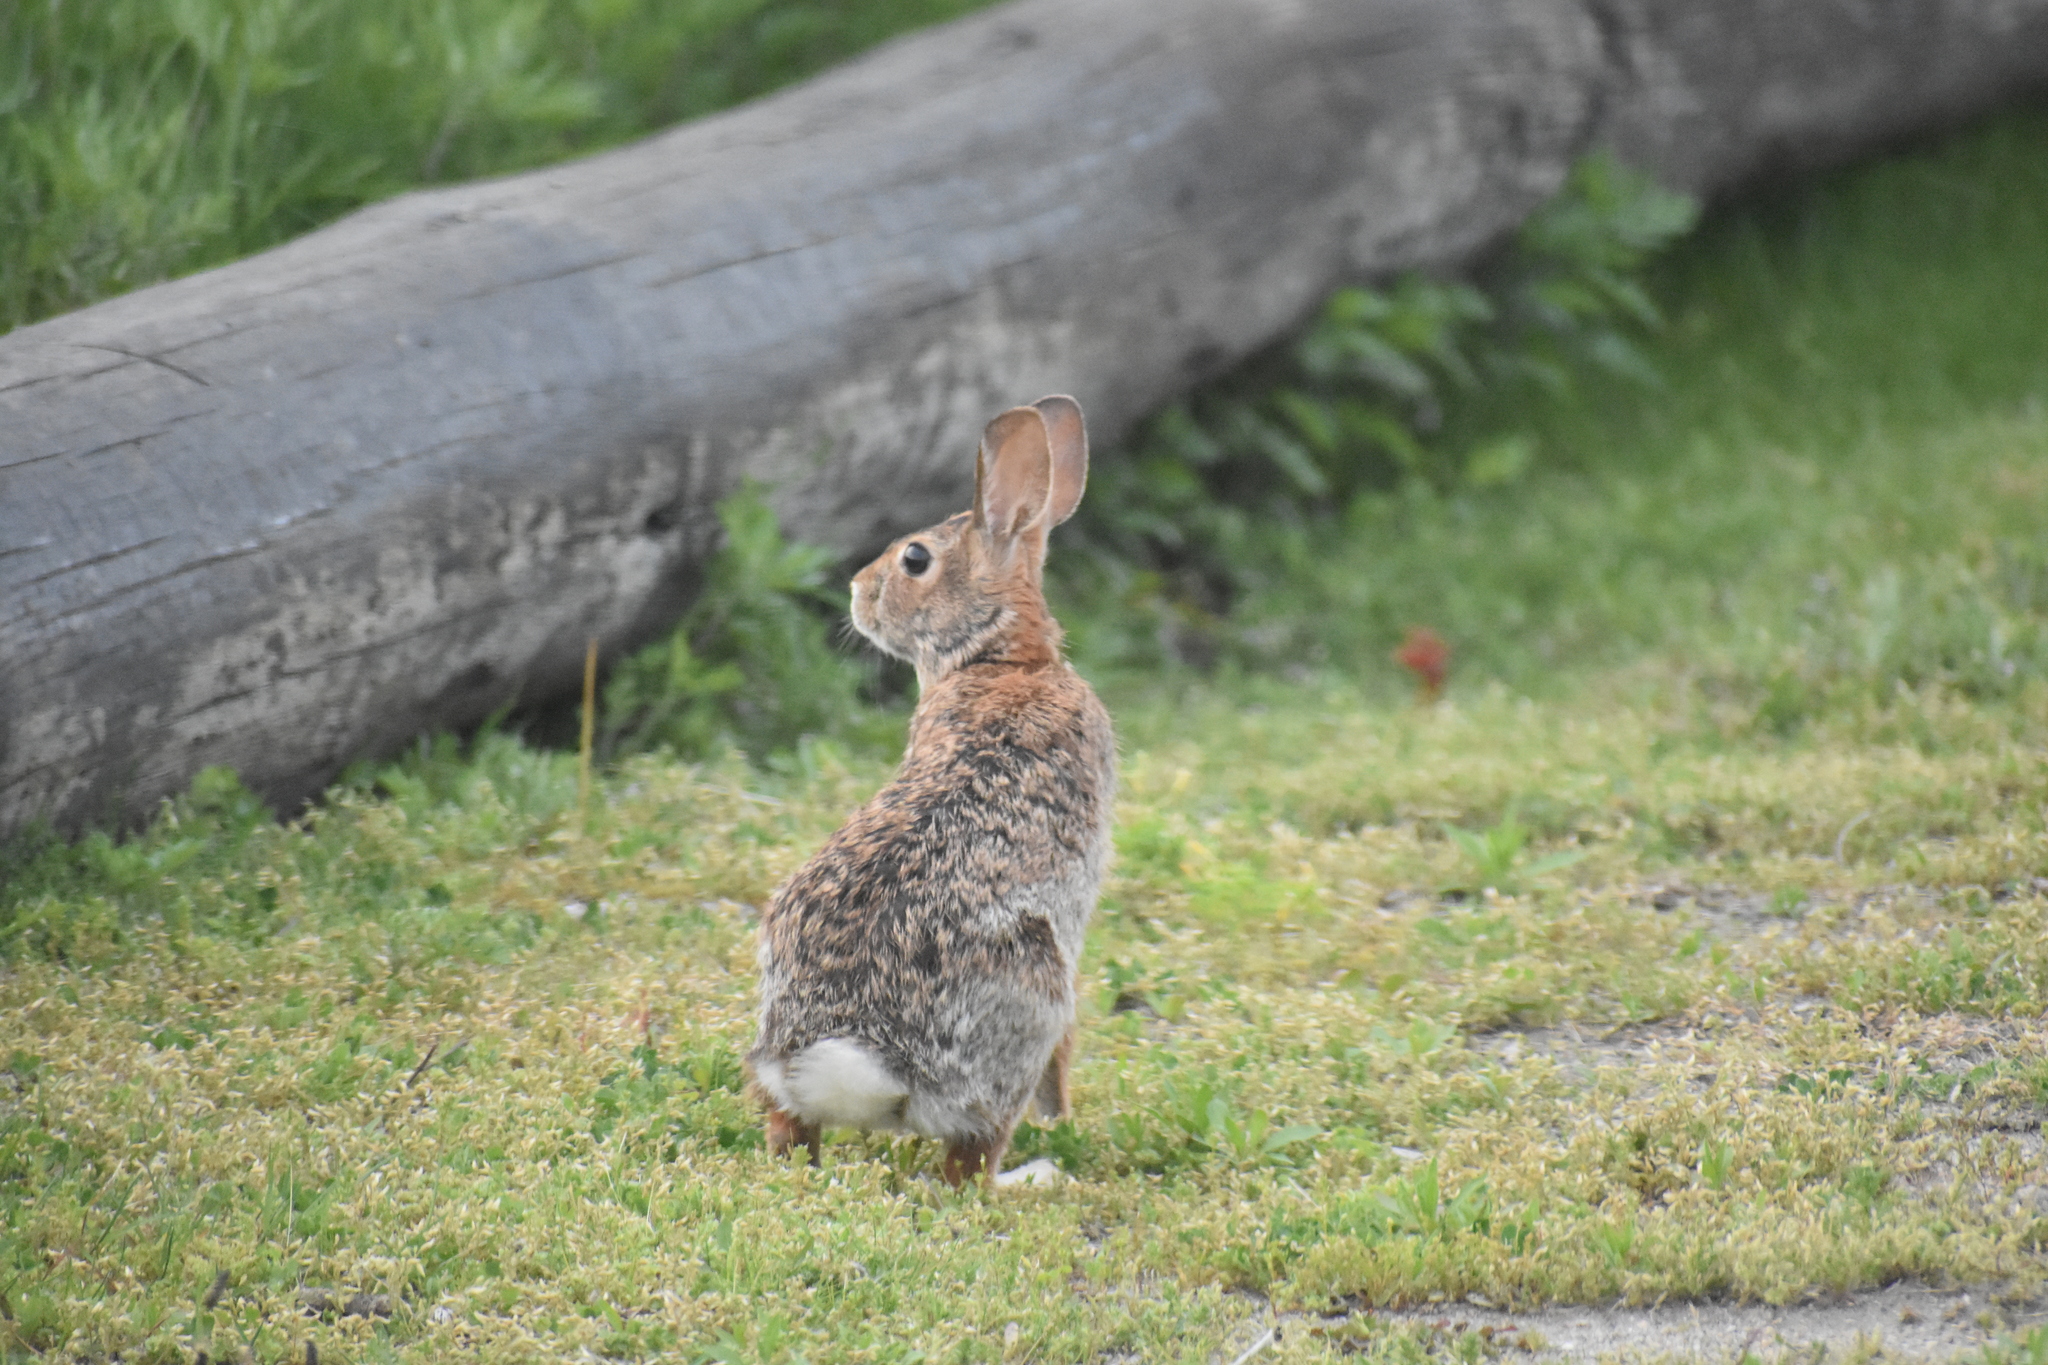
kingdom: Animalia
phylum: Chordata
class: Mammalia
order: Lagomorpha
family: Leporidae
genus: Sylvilagus
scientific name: Sylvilagus floridanus
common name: Eastern cottontail
